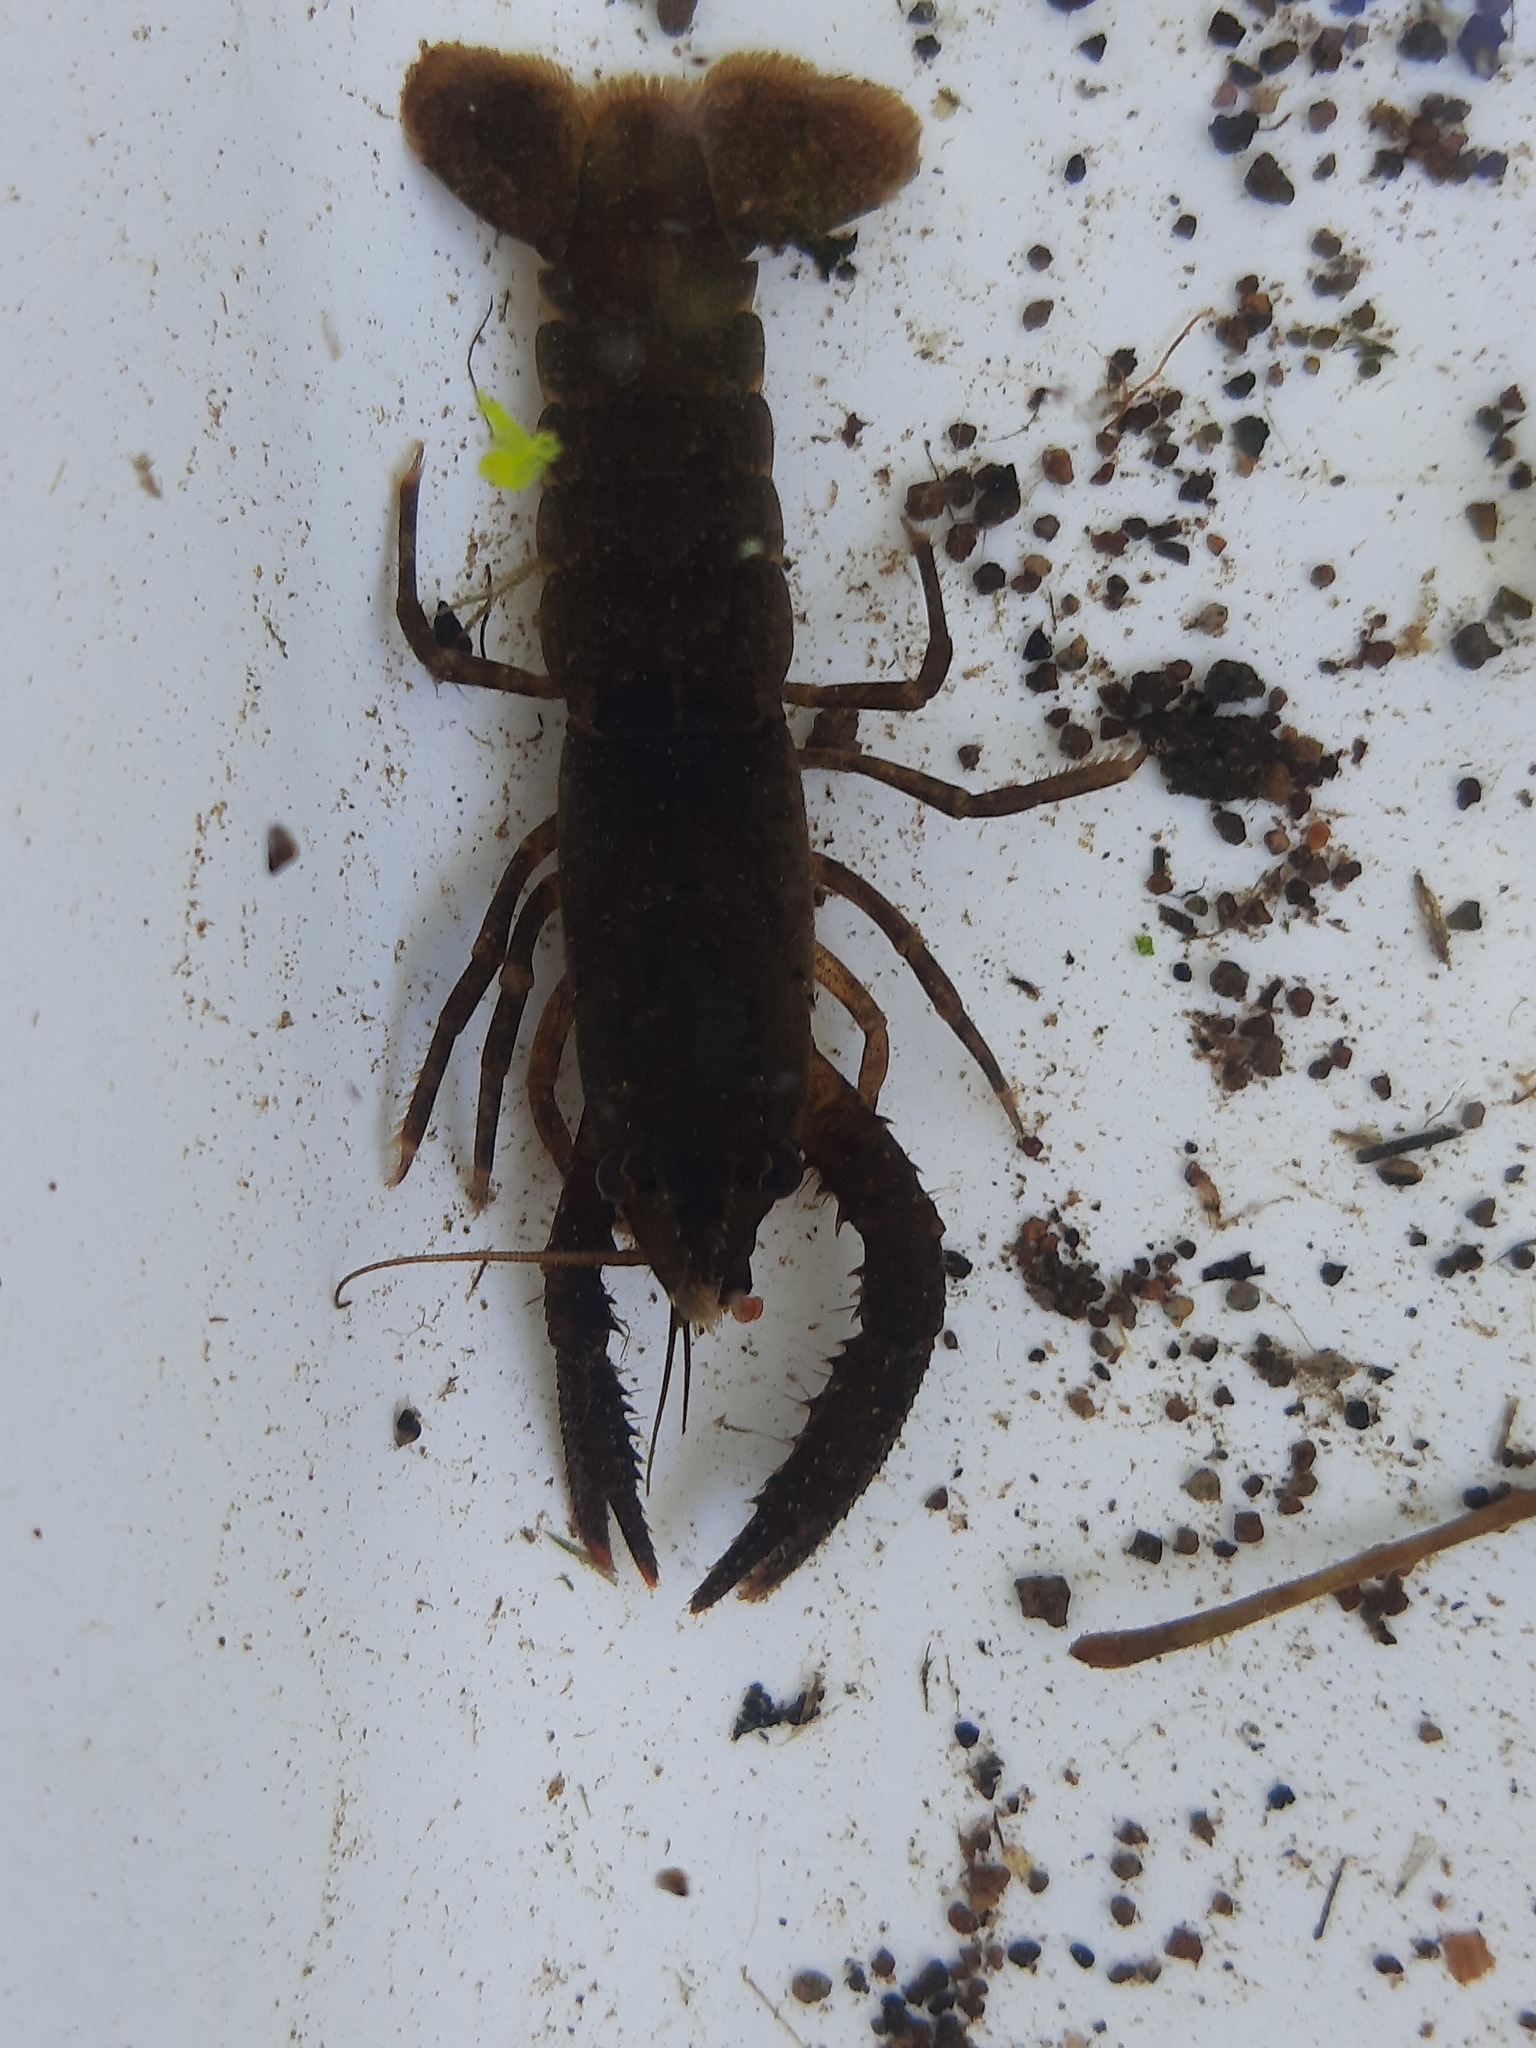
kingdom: Animalia
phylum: Arthropoda
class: Malacostraca
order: Decapoda
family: Parastacidae
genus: Paranephrops
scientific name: Paranephrops planifrons
